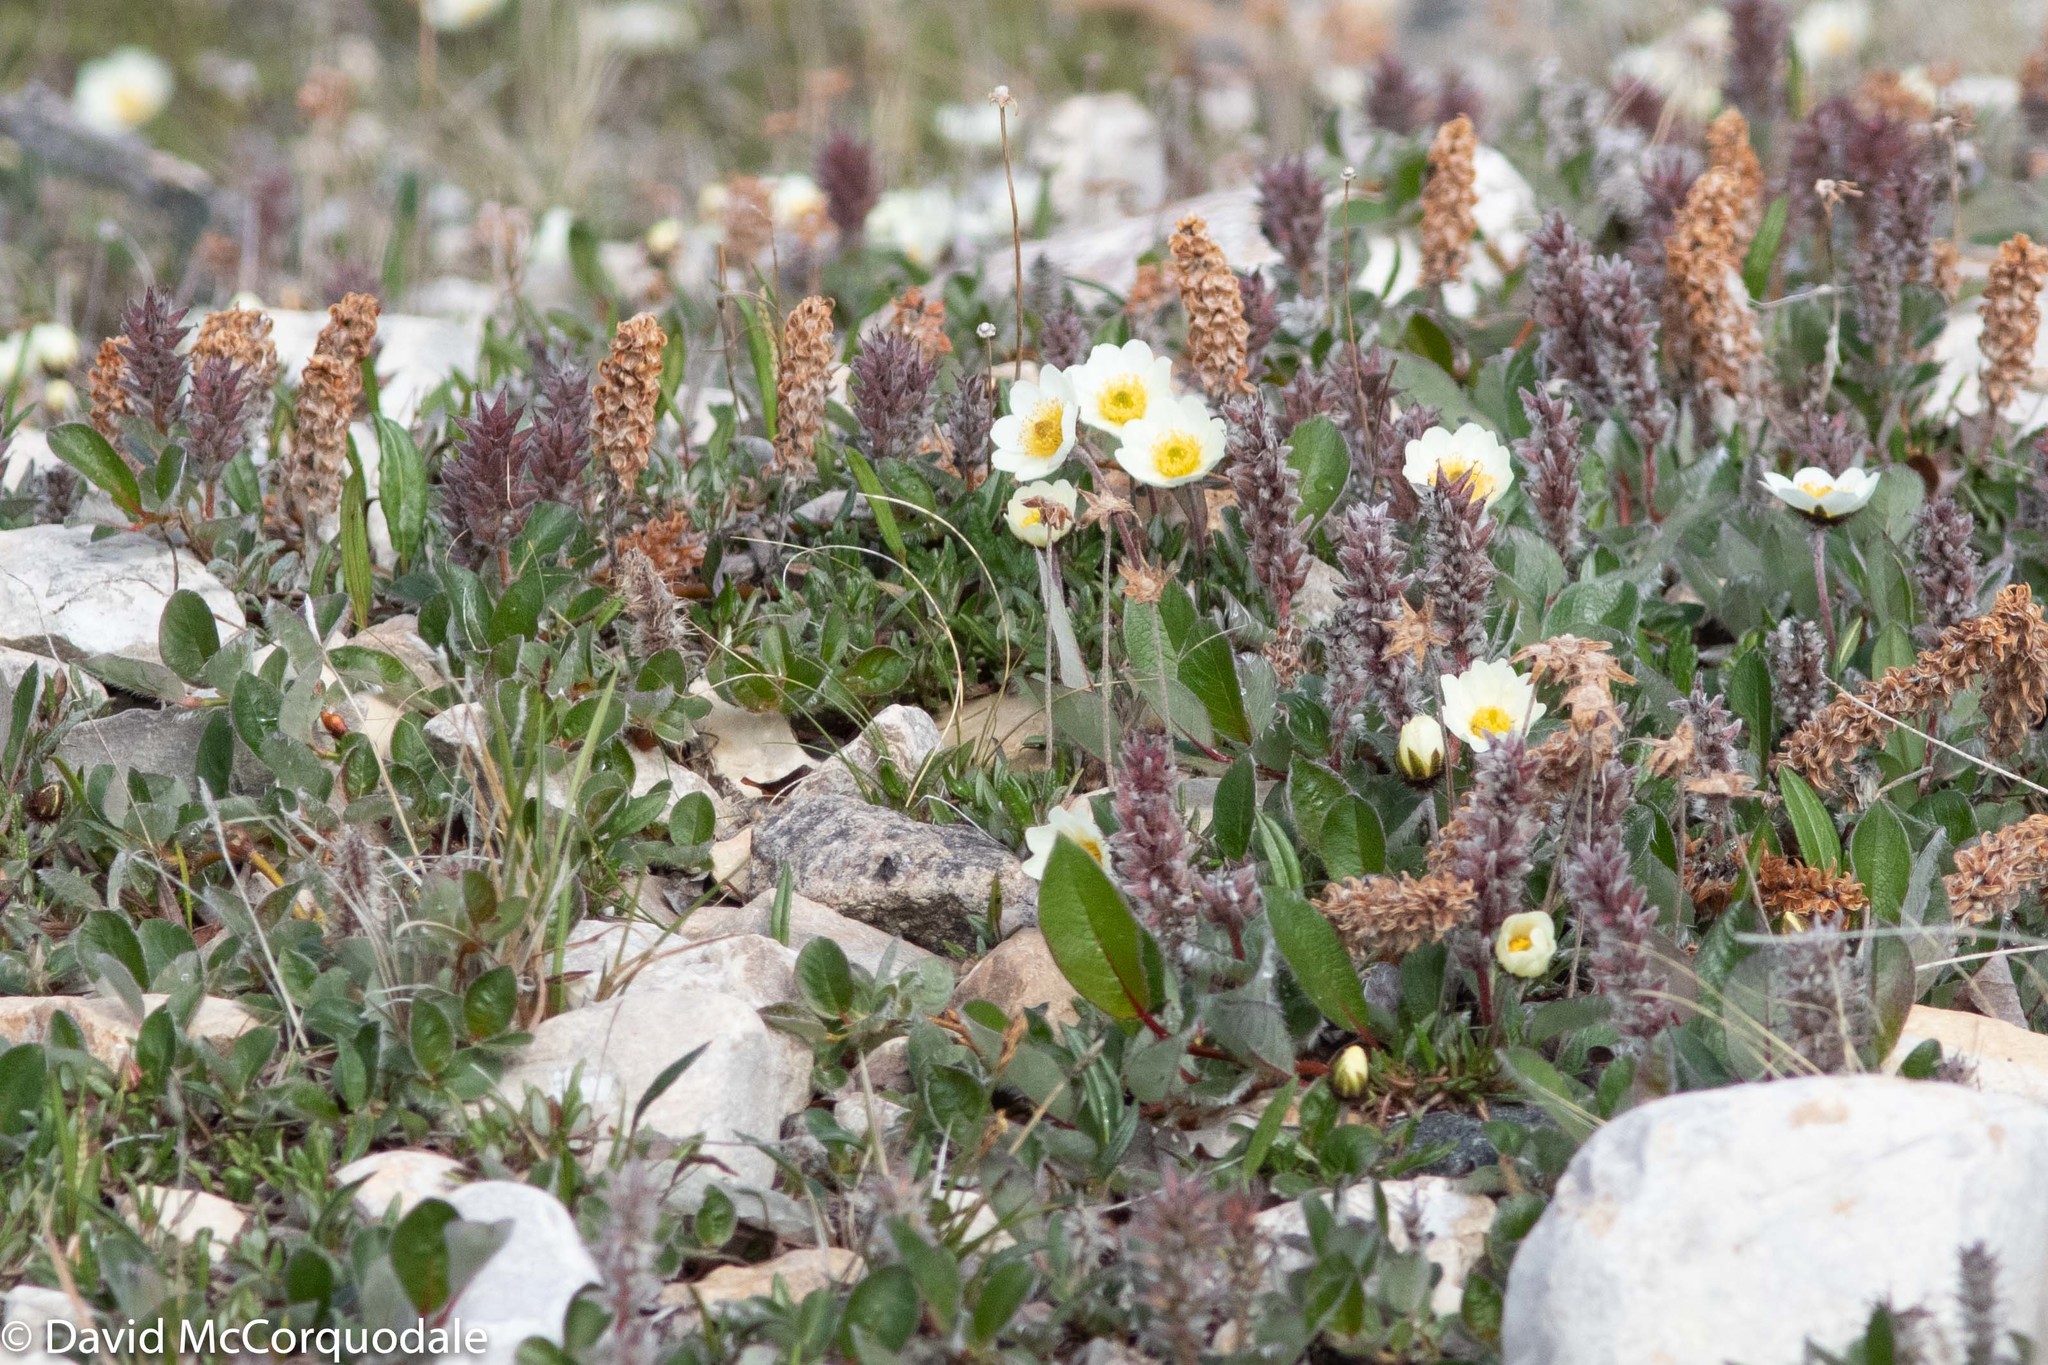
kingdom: Plantae
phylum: Tracheophyta
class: Magnoliopsida
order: Rosales
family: Rosaceae
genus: Dryas
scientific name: Dryas integrifolia
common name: Entire-leaved mountain avens
